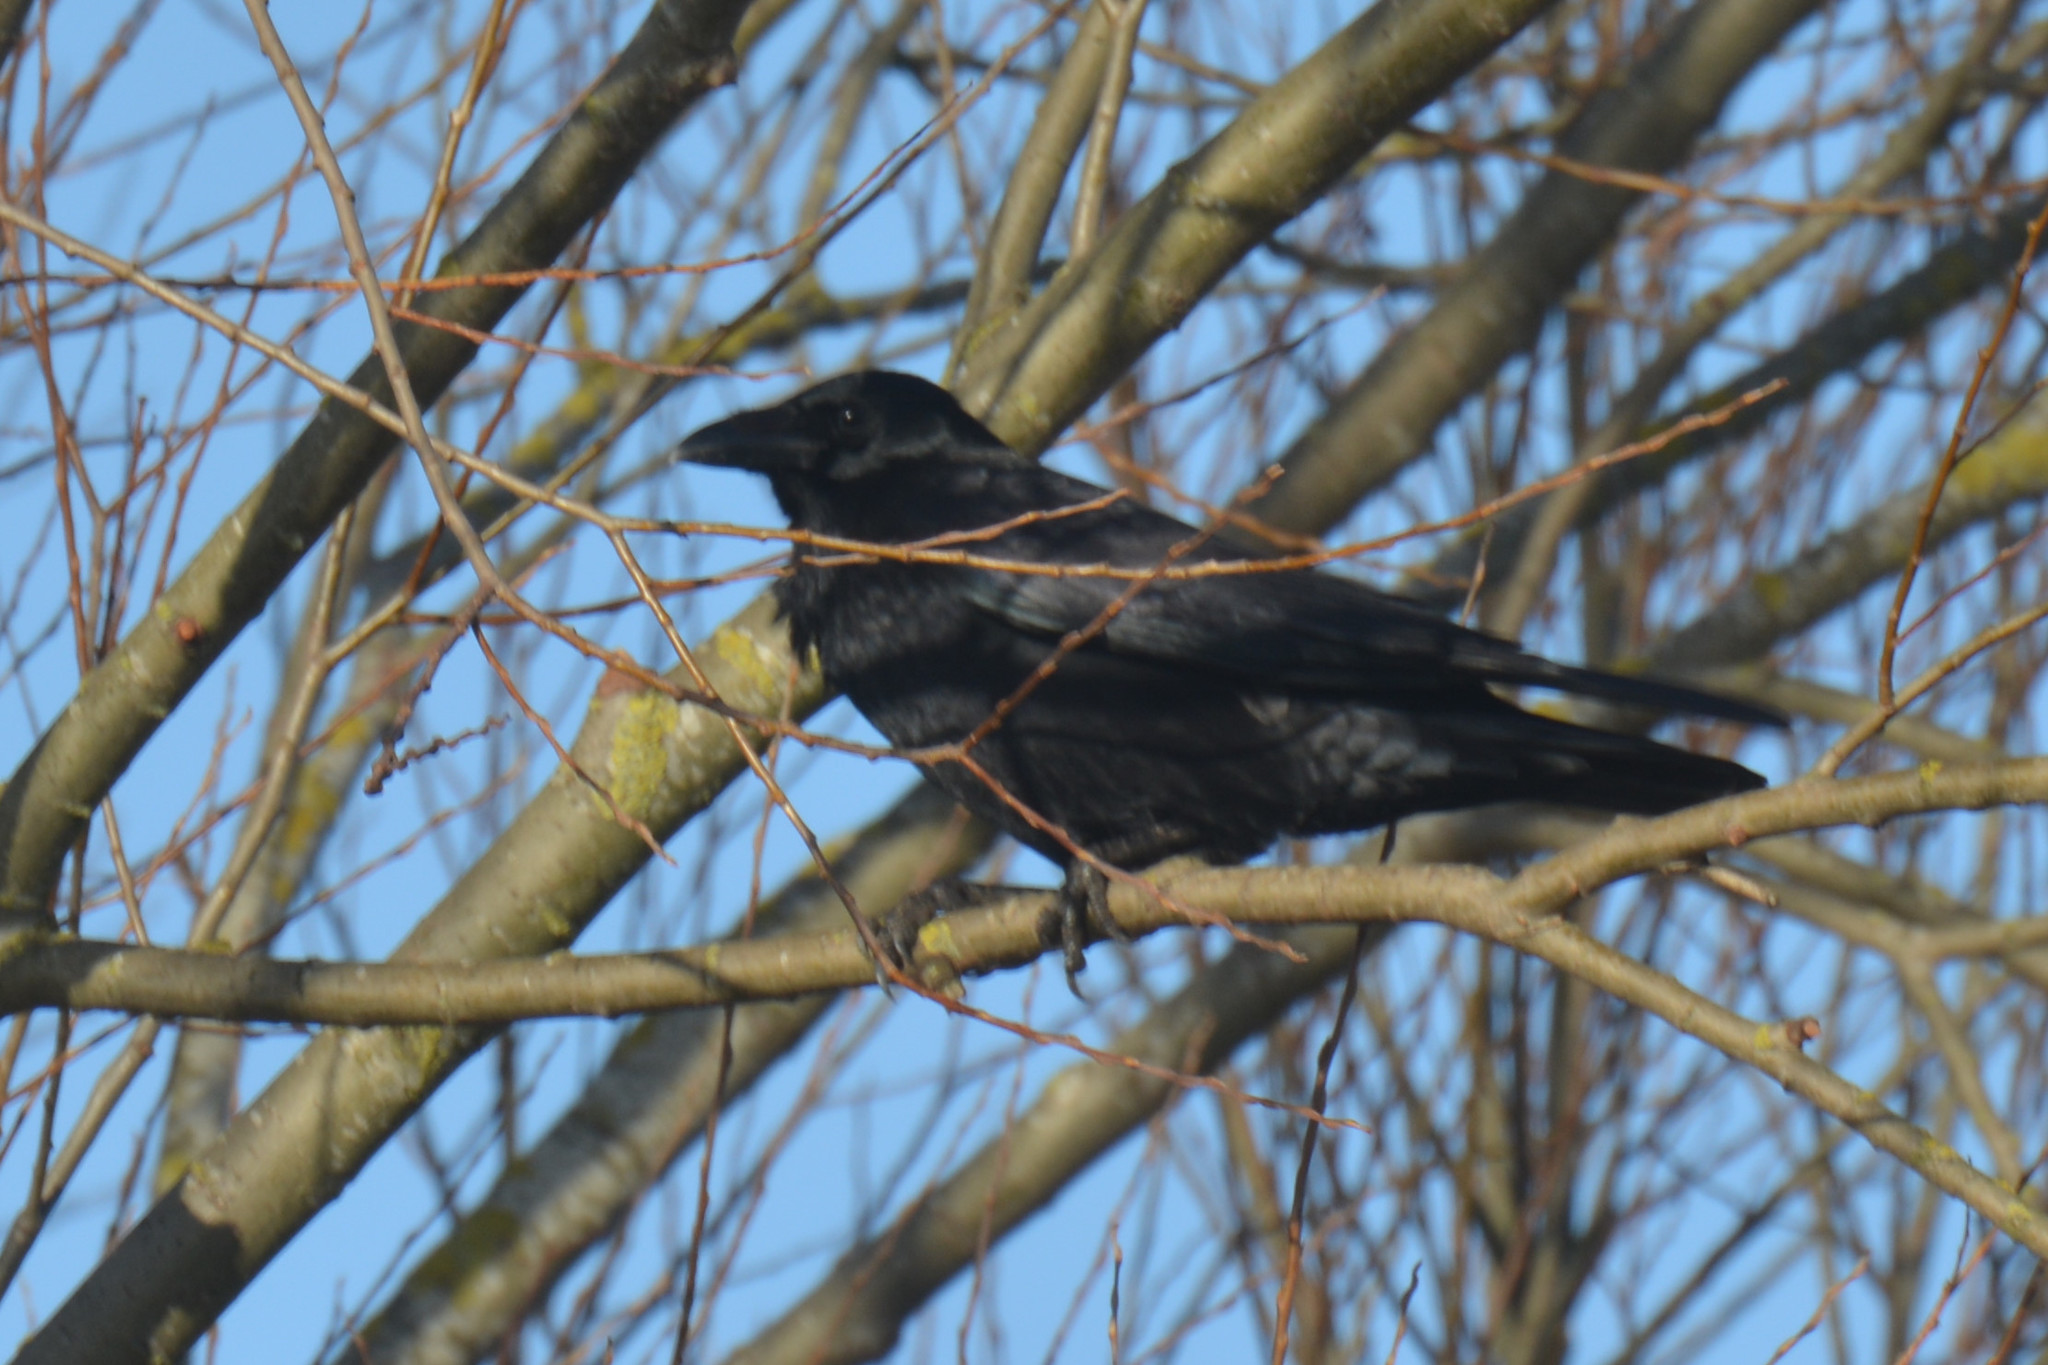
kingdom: Animalia
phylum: Chordata
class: Aves
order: Passeriformes
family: Corvidae
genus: Corvus
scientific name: Corvus corone
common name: Carrion crow
